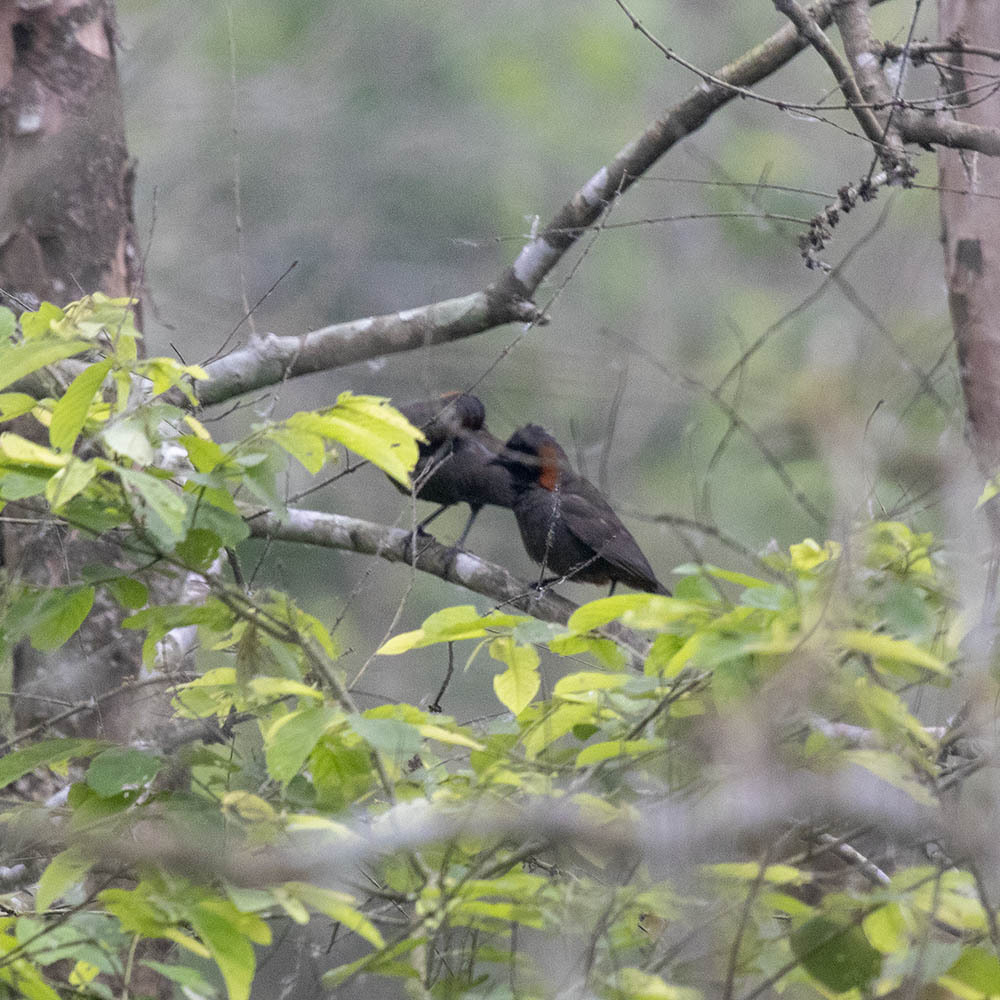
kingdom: Animalia
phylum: Chordata
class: Aves
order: Passeriformes
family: Leiothrichidae
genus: Garrulax
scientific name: Garrulax ruficollis
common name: Rufous-necked laughingthrush
